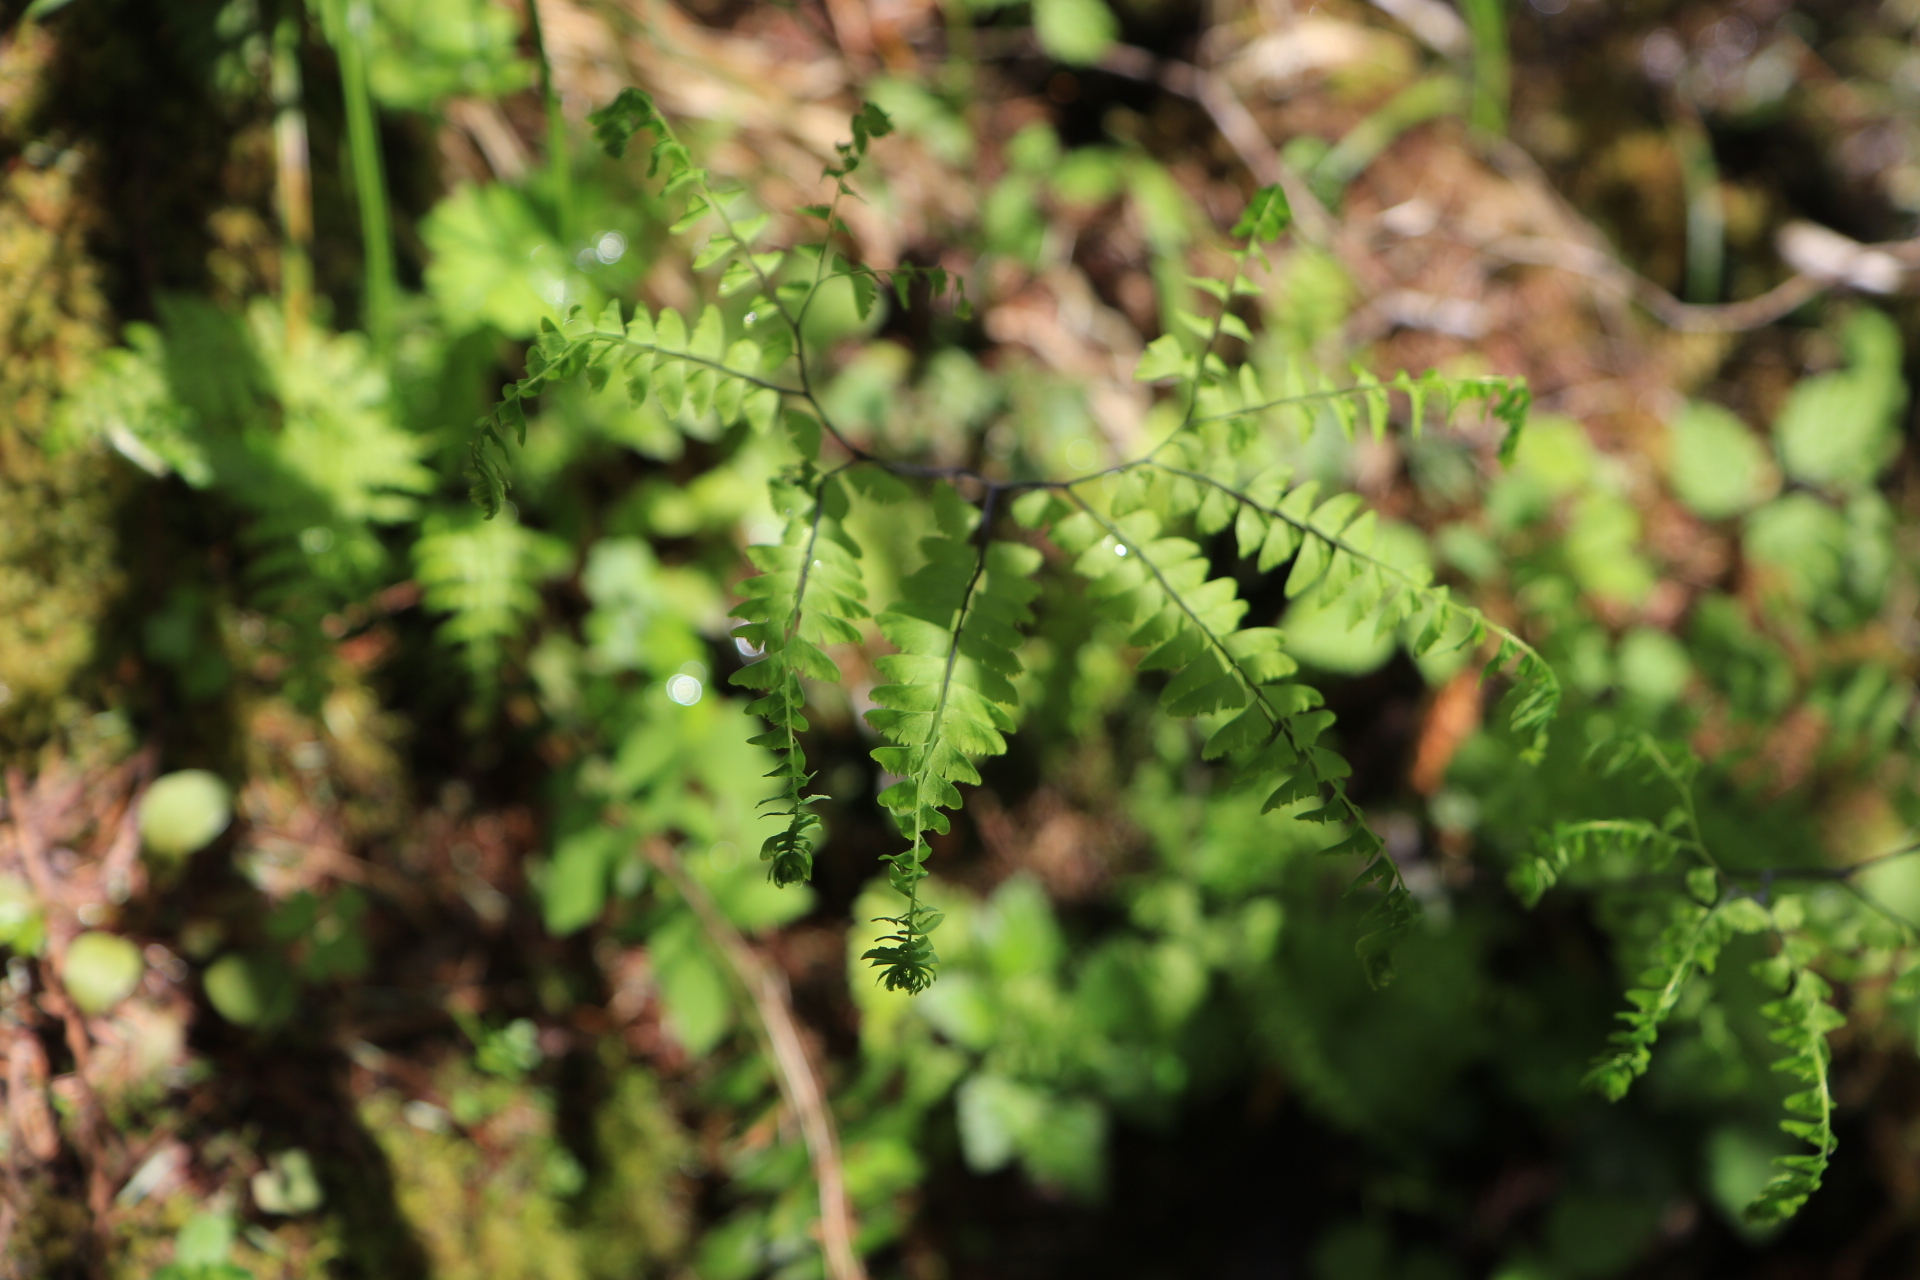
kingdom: Plantae
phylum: Tracheophyta
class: Polypodiopsida
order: Polypodiales
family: Pteridaceae
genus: Adiantum
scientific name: Adiantum aleuticum
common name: Aleutian maidenhair fern
